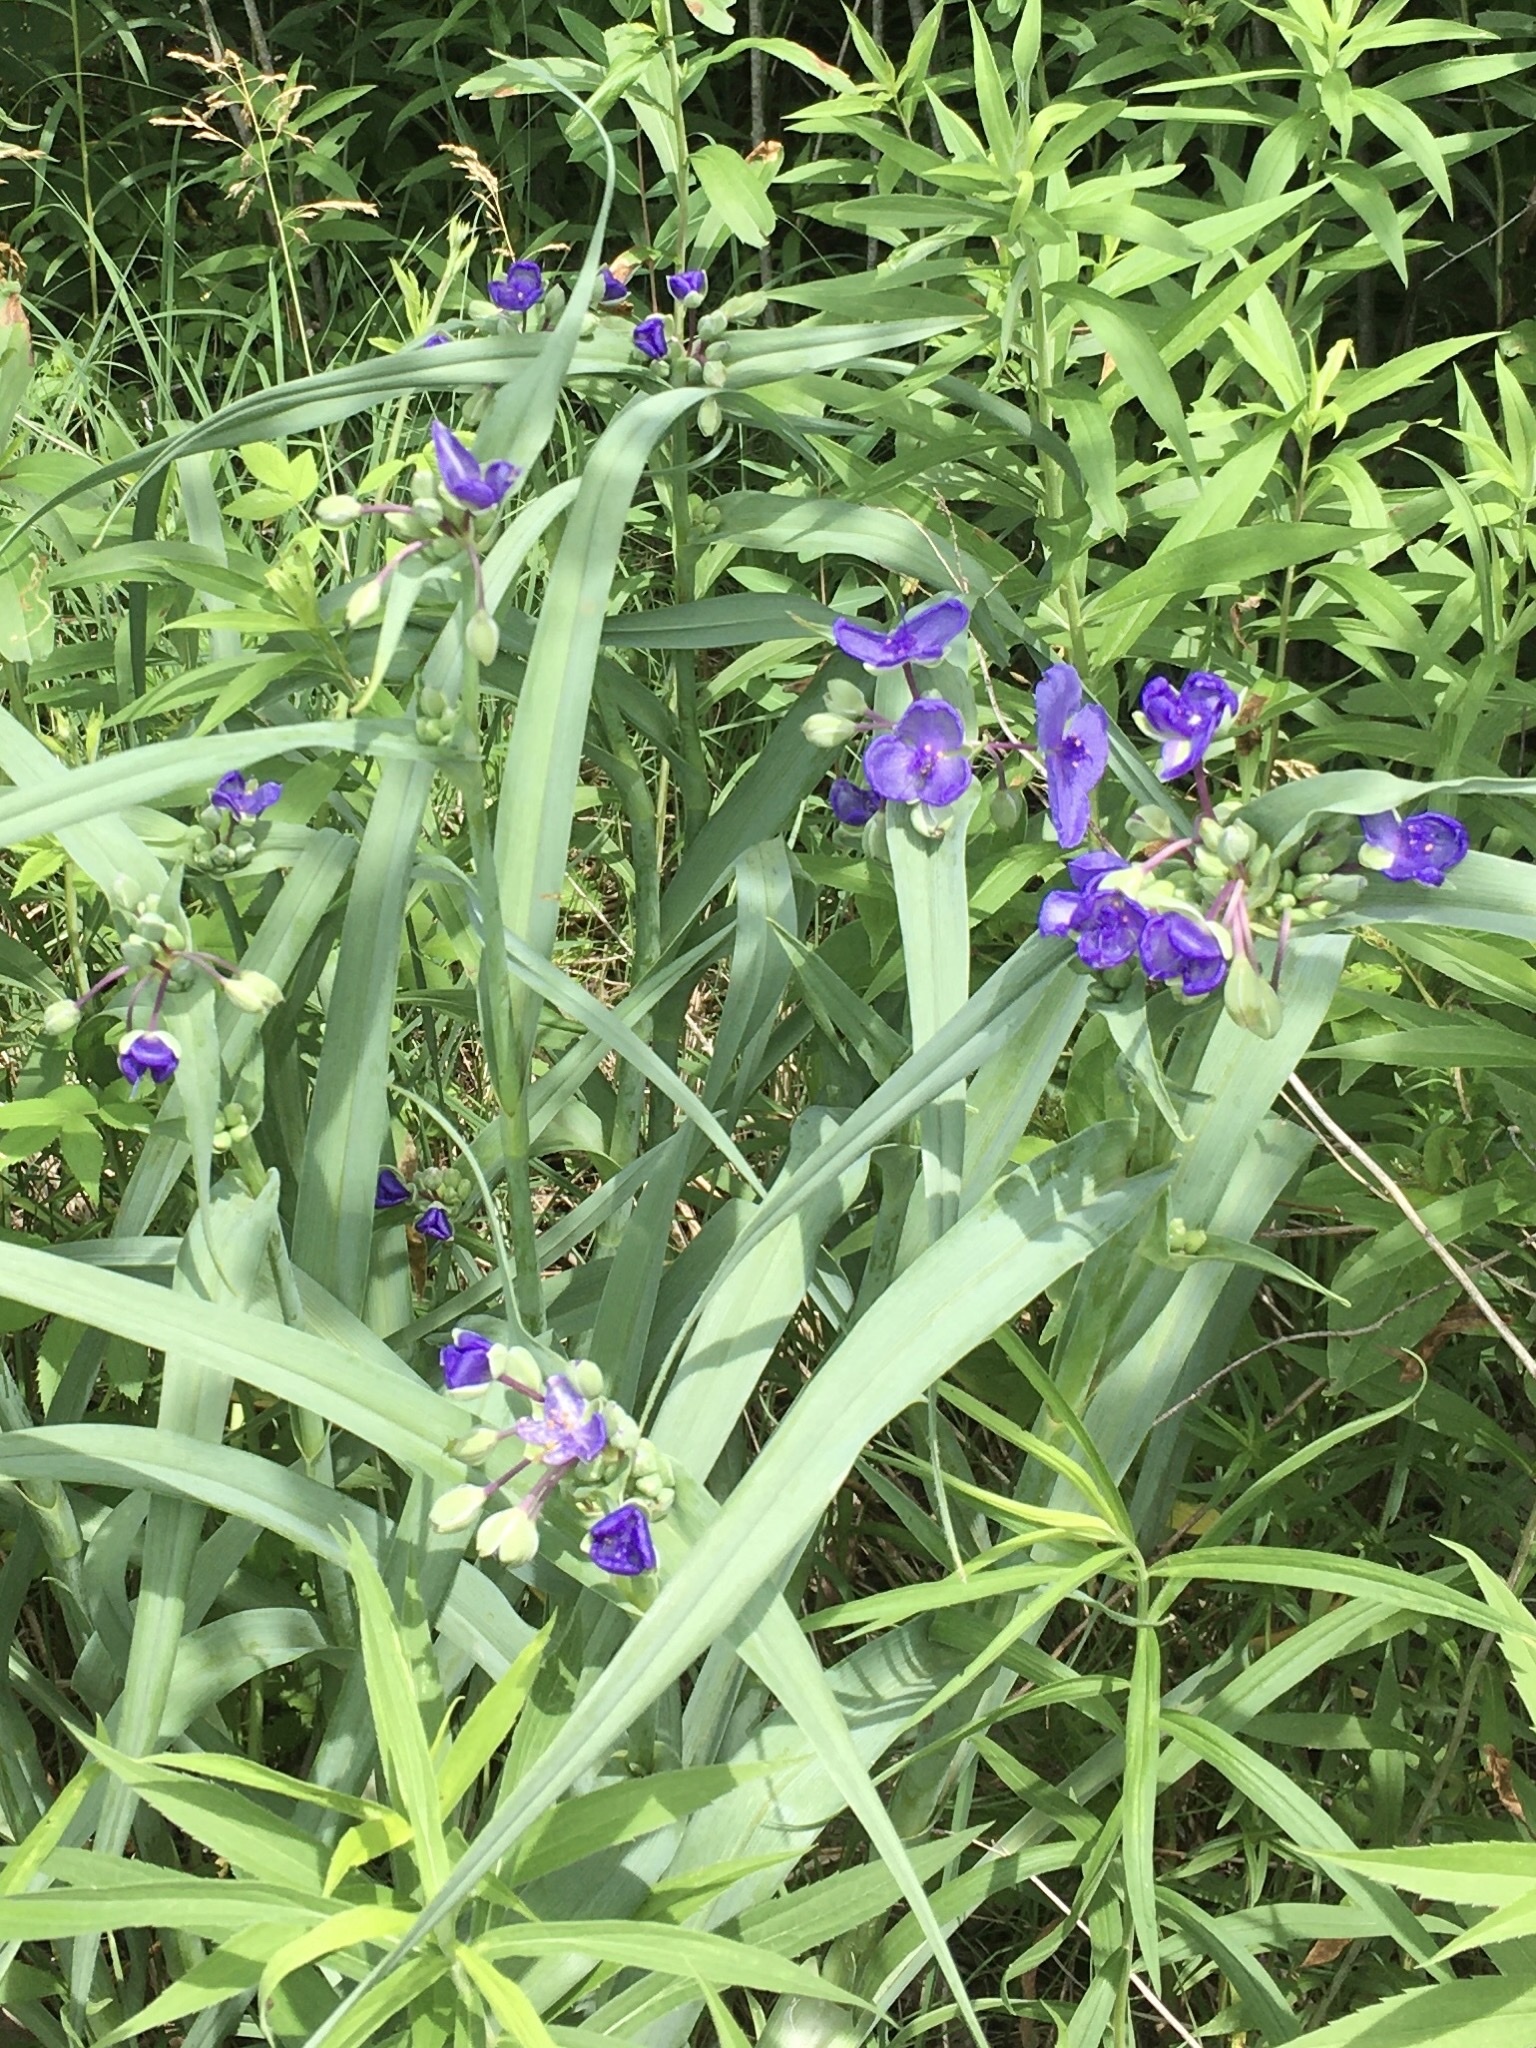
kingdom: Plantae
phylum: Tracheophyta
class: Liliopsida
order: Commelinales
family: Commelinaceae
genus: Tradescantia
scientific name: Tradescantia ohiensis
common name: Ohio spiderwort
